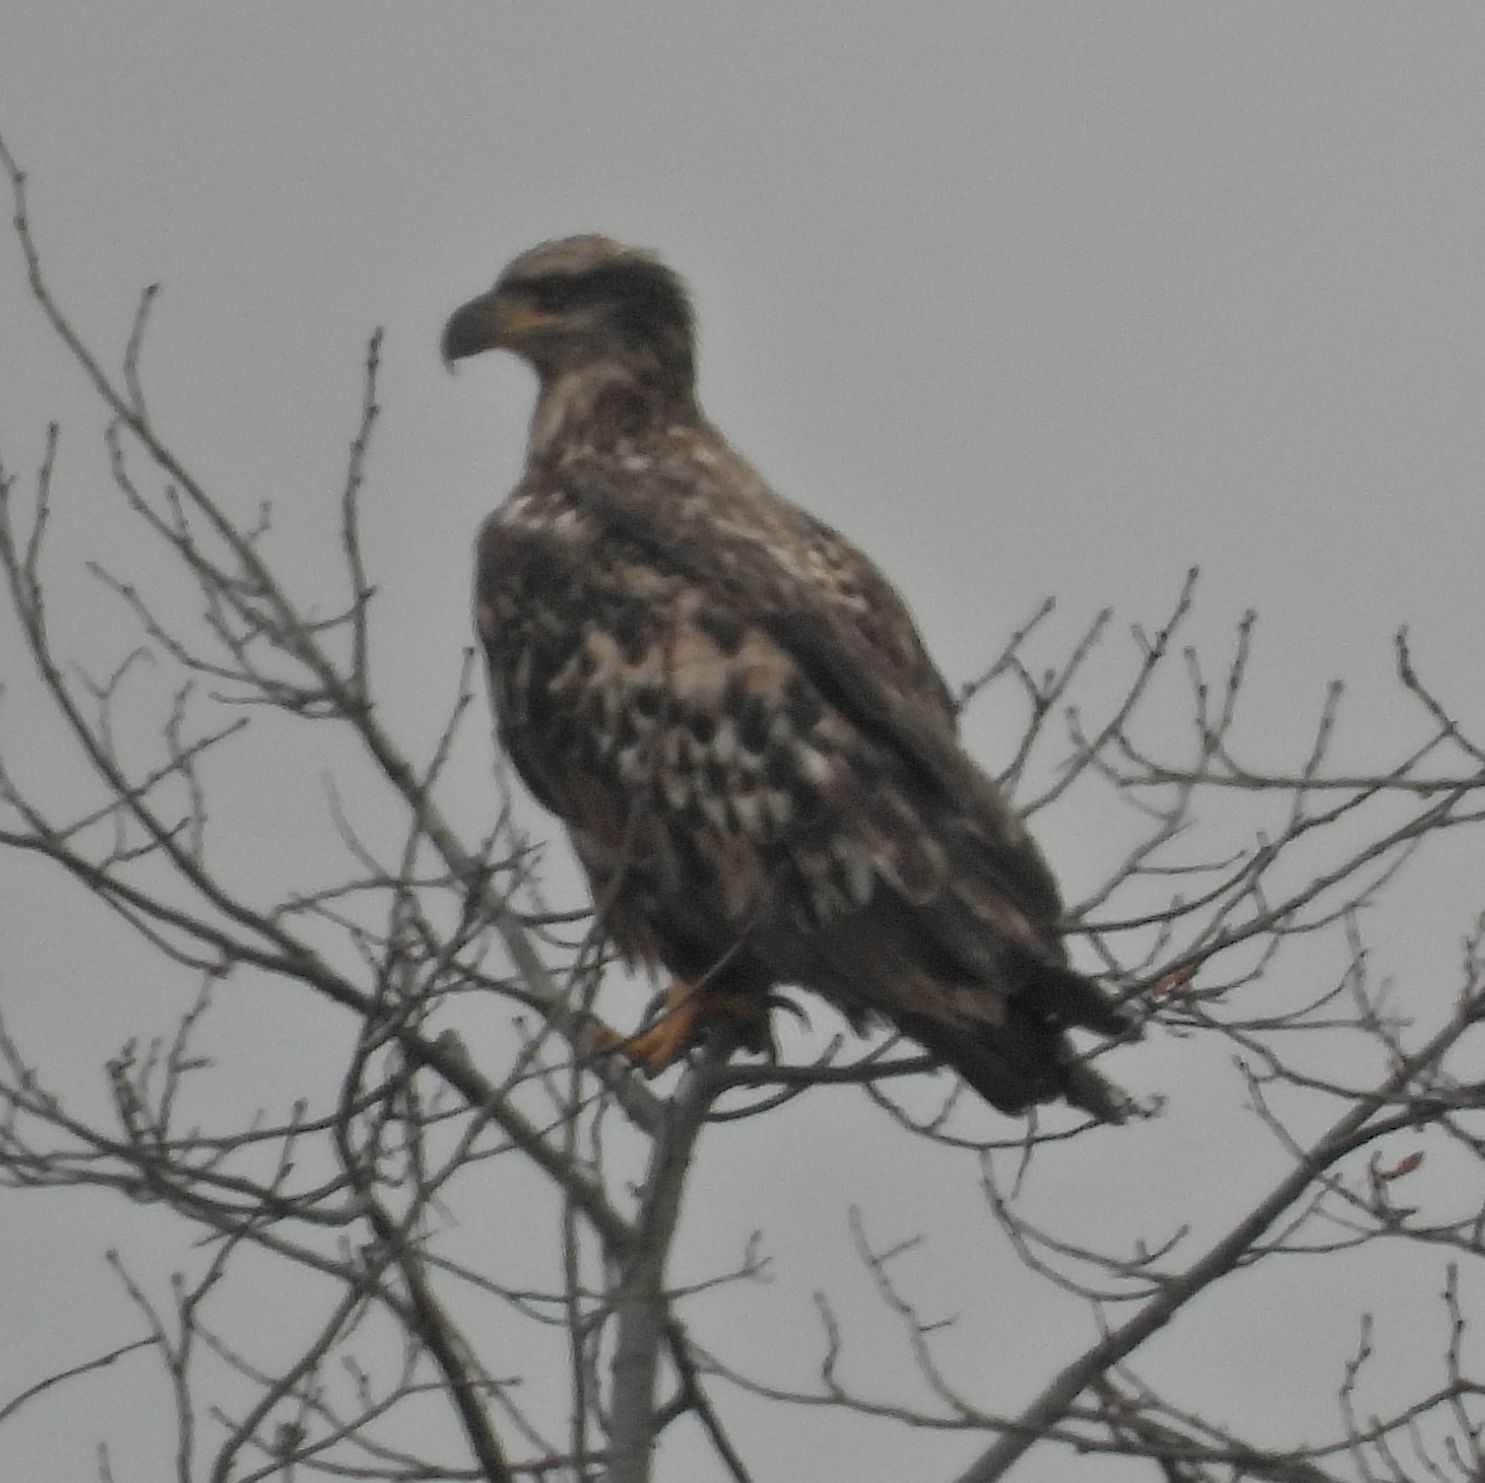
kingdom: Animalia
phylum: Chordata
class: Aves
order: Accipitriformes
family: Accipitridae
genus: Haliaeetus
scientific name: Haliaeetus leucocephalus
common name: Bald eagle
